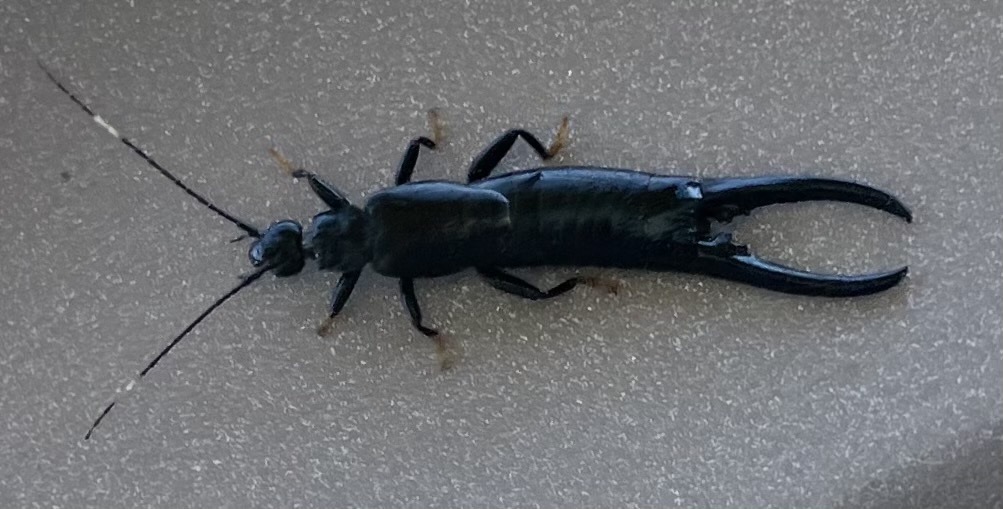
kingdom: Animalia
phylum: Arthropoda
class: Insecta
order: Dermaptera
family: Chelisochidae
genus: Chelisoches
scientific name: Chelisoches morio
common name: Black earwig
